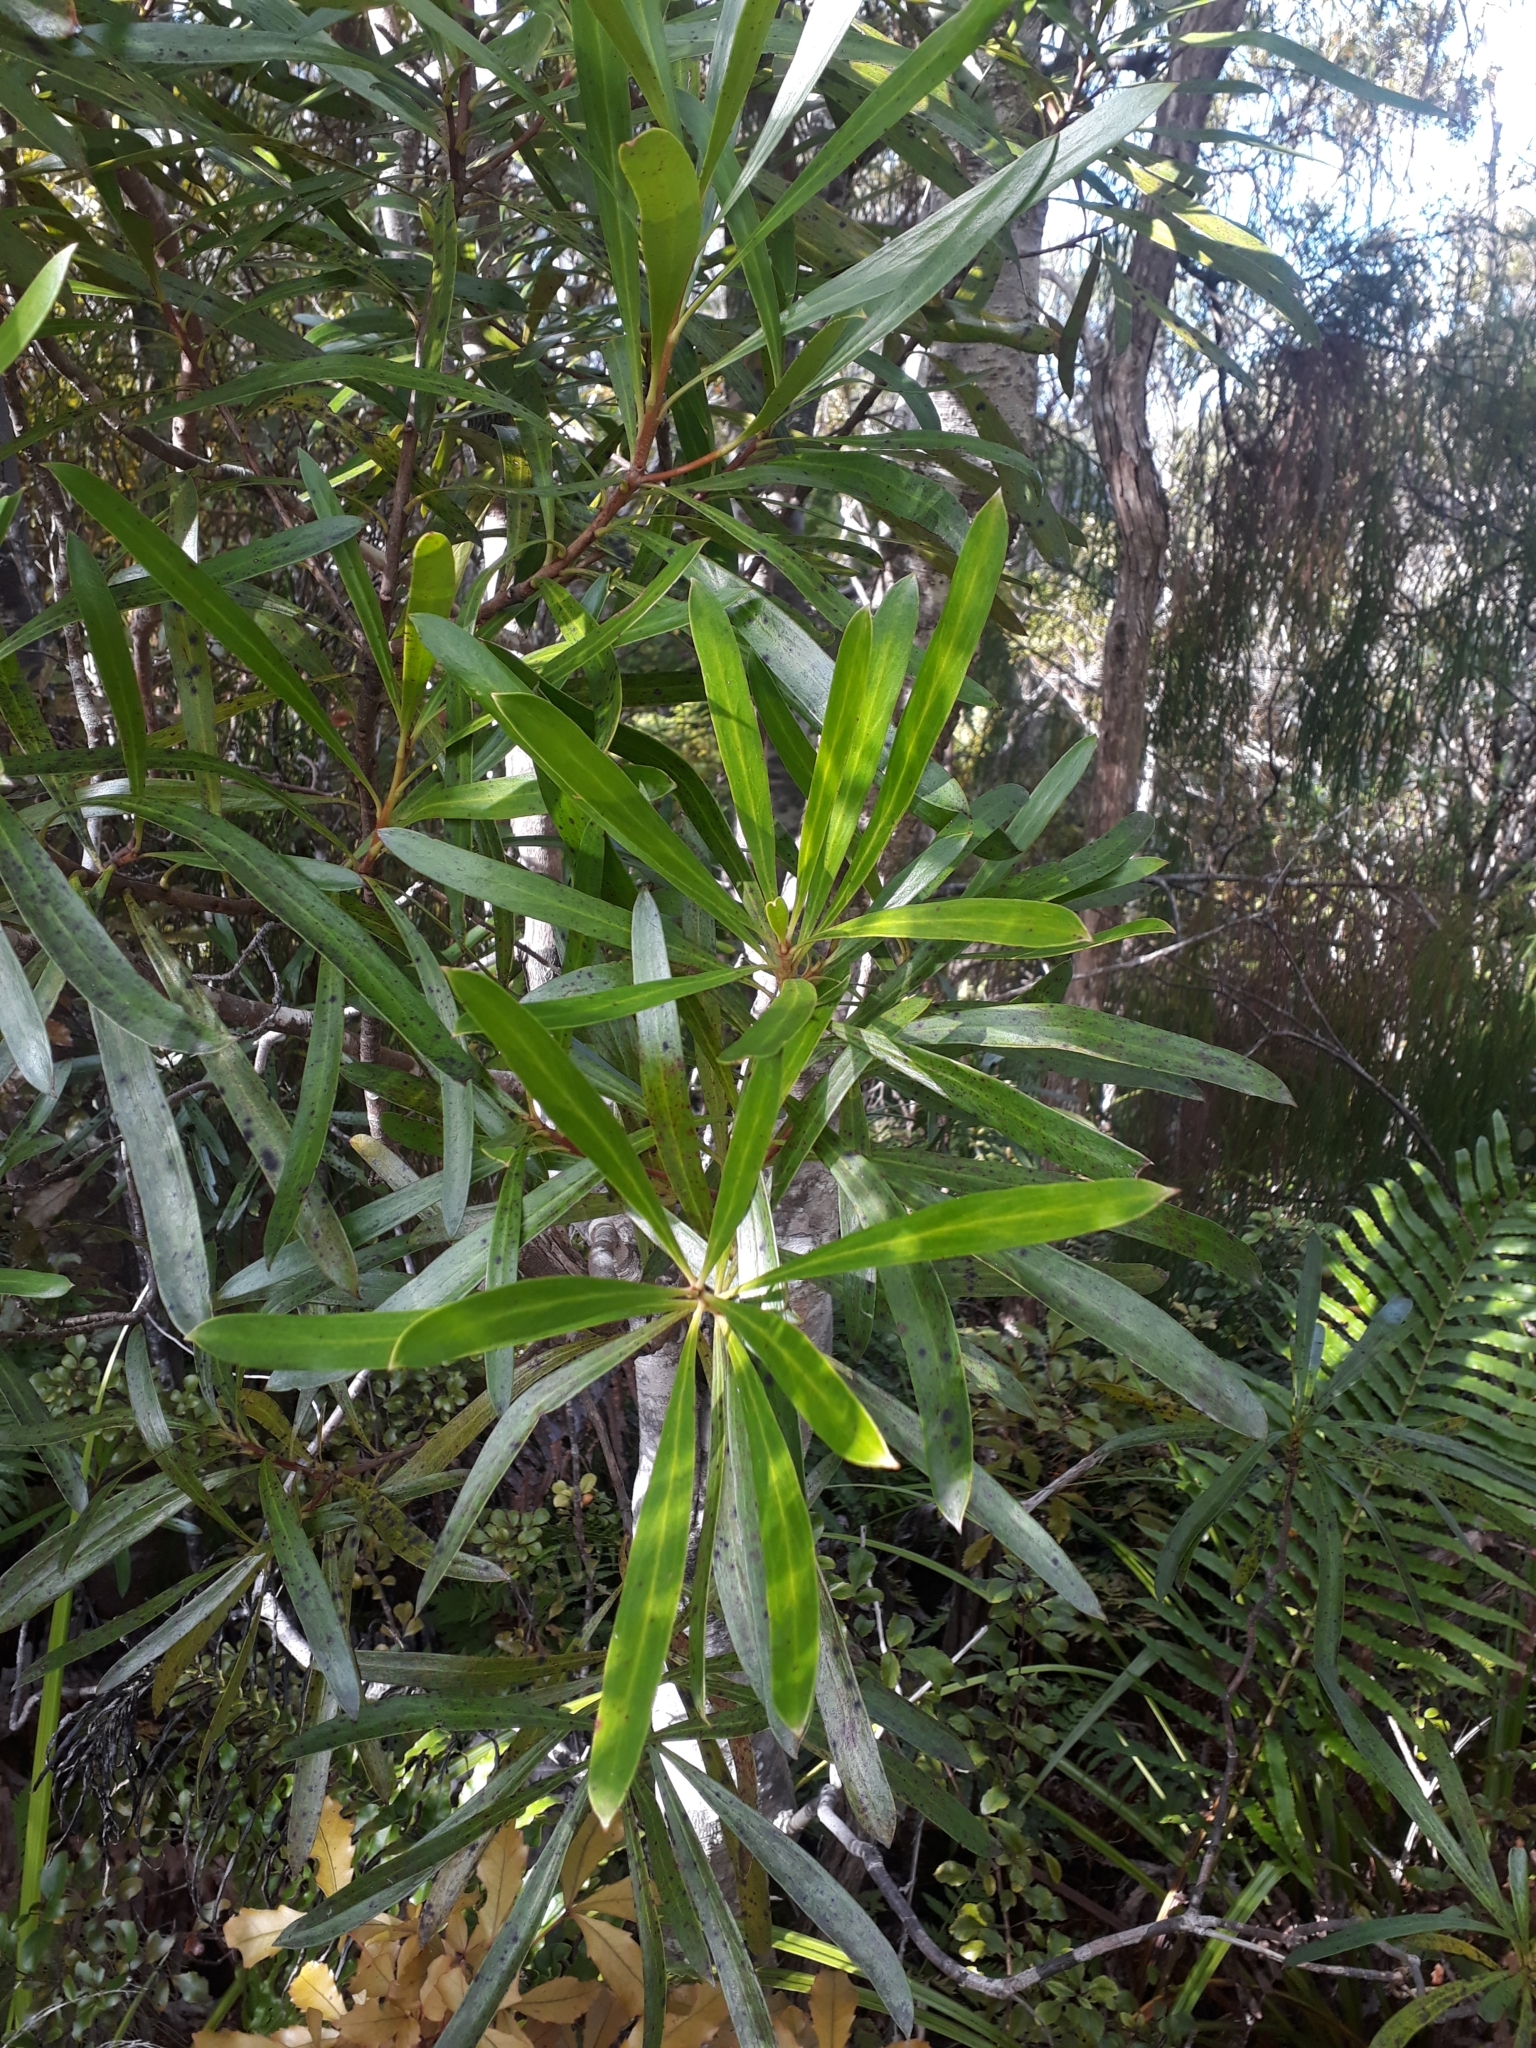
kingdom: Plantae
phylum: Tracheophyta
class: Magnoliopsida
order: Proteales
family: Proteaceae
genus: Toronia
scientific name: Toronia toru
